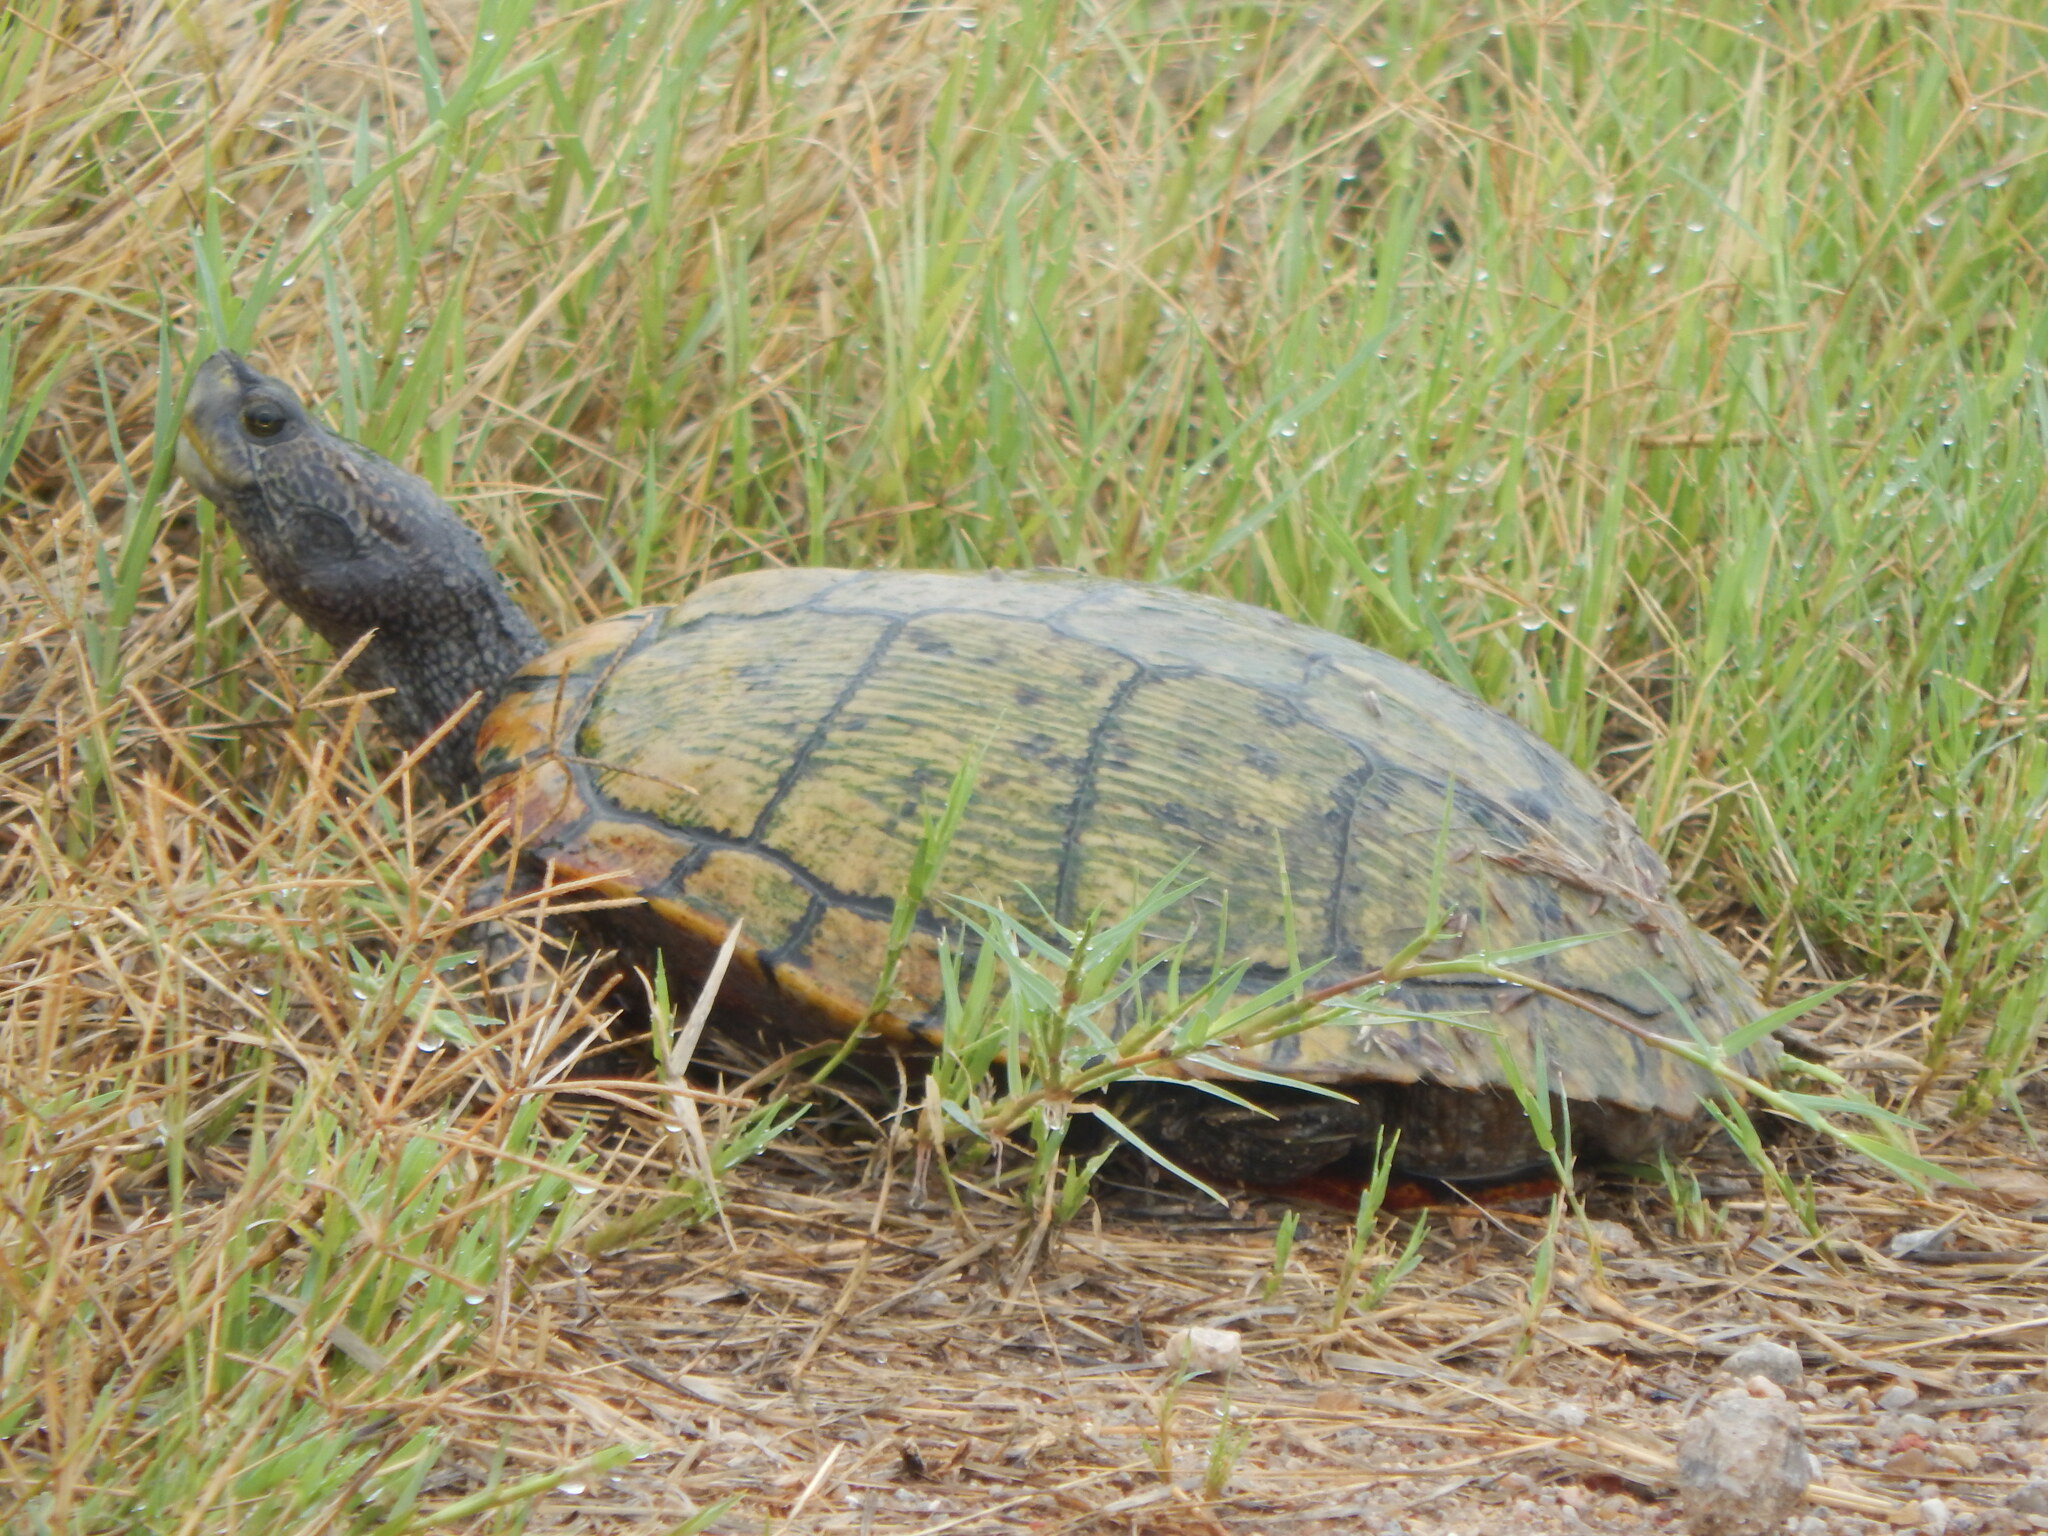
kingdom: Animalia
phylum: Chordata
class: Testudines
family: Emydidae
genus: Trachemys
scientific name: Trachemys scripta
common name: Slider
